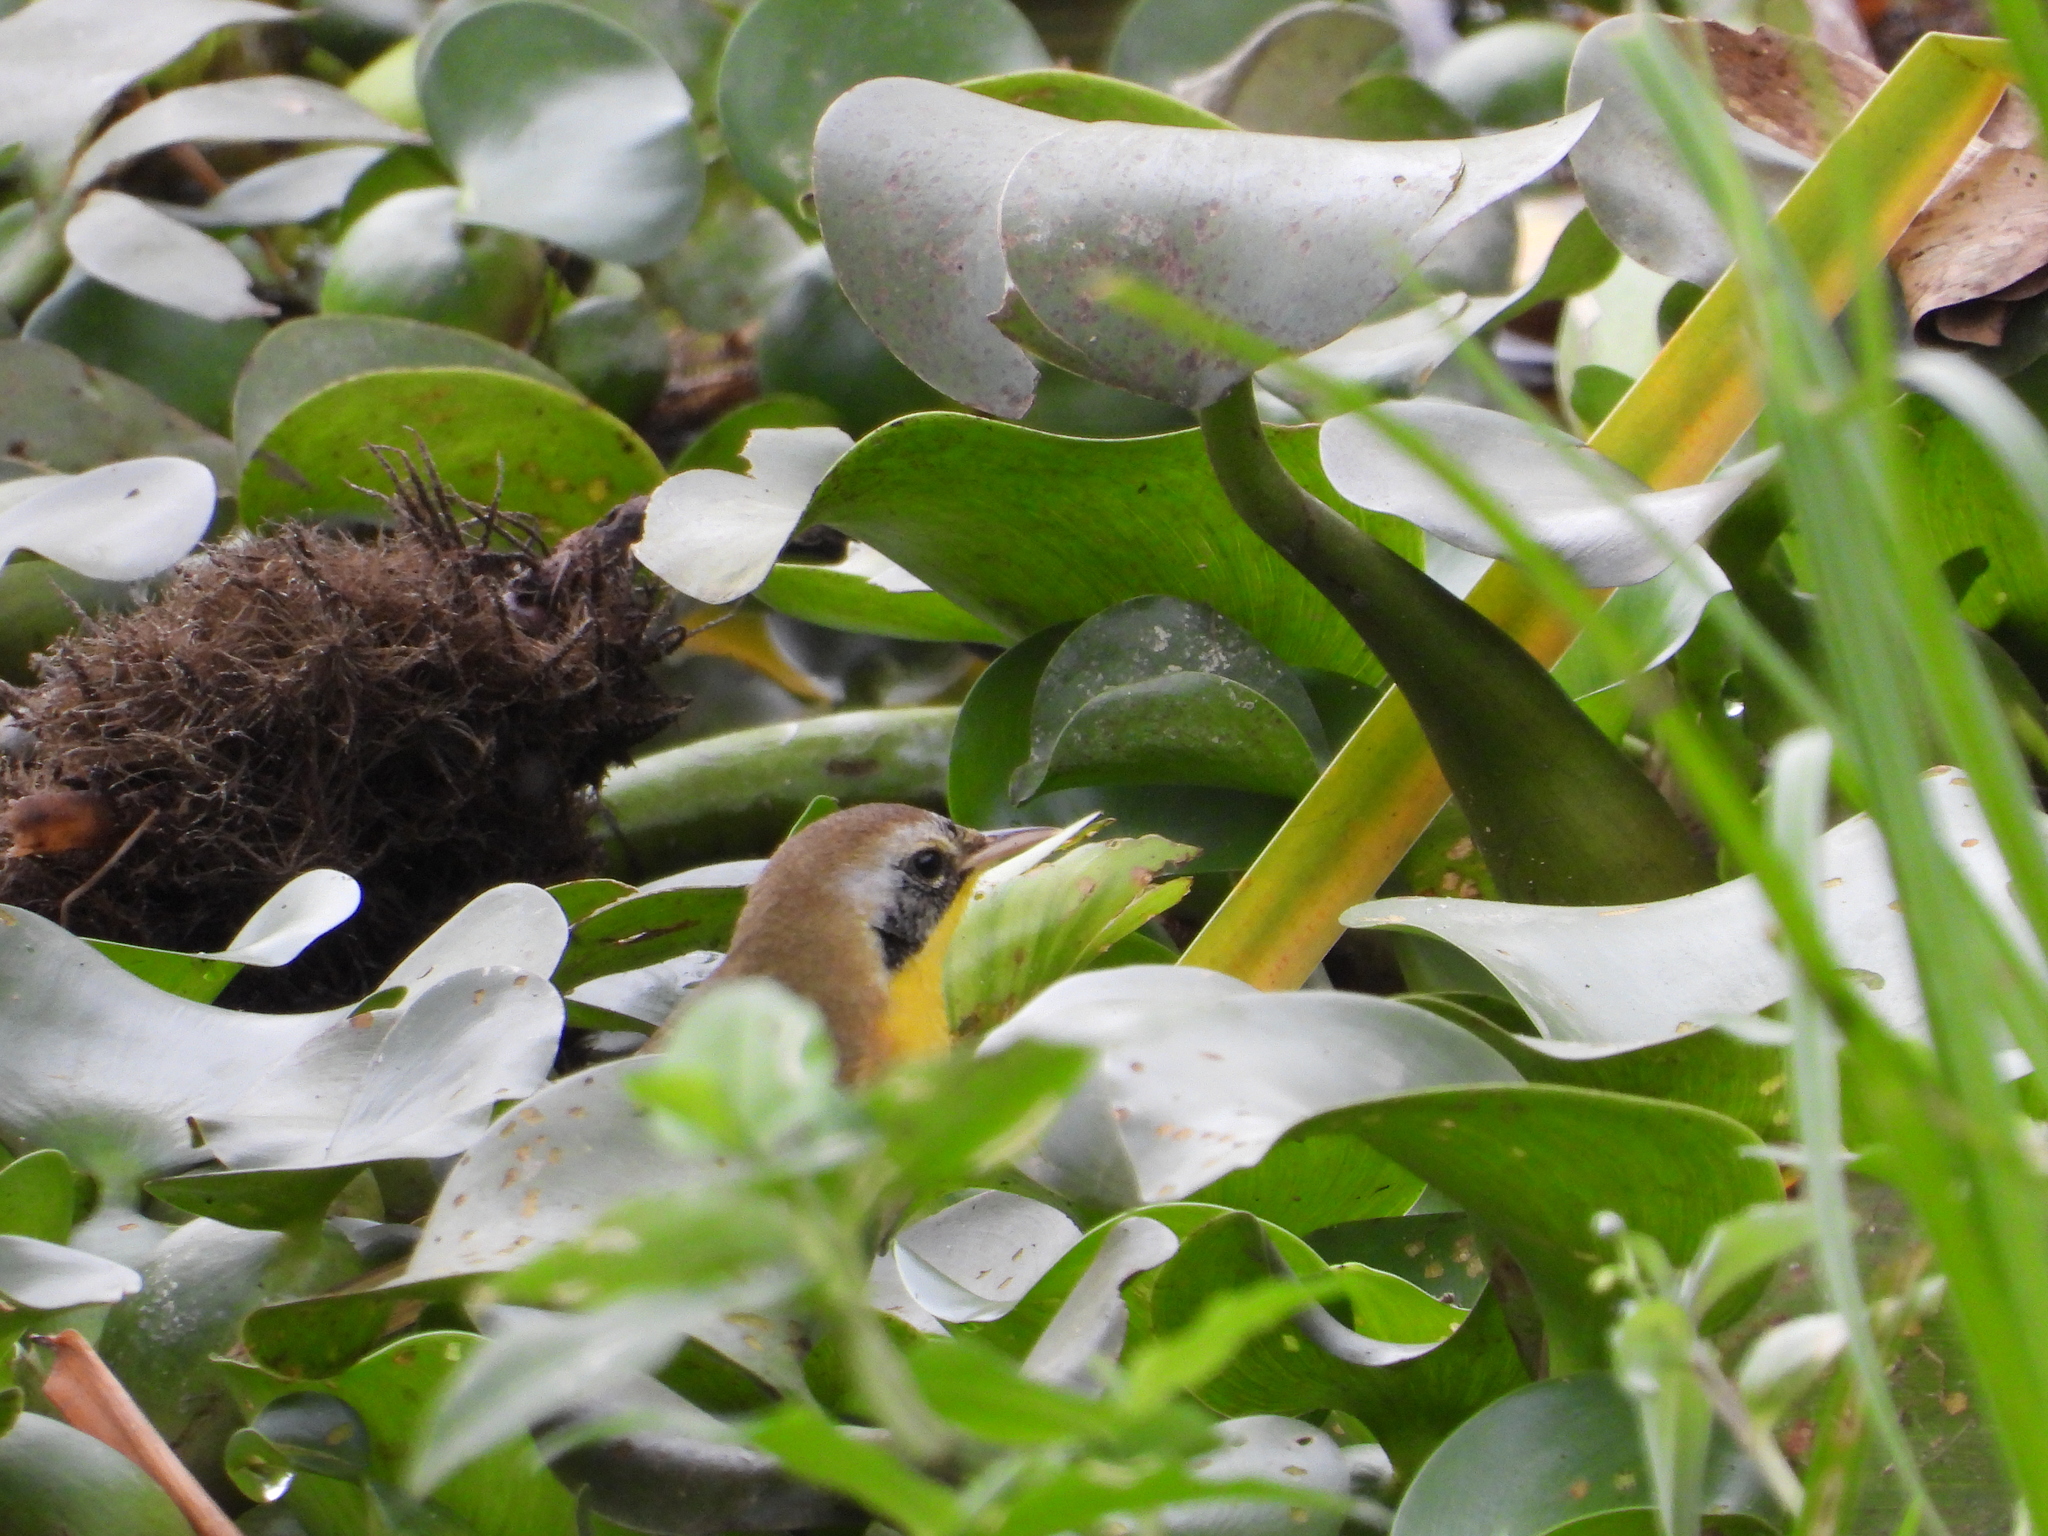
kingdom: Animalia
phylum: Chordata
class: Aves
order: Passeriformes
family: Parulidae
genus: Geothlypis
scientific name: Geothlypis trichas
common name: Common yellowthroat
